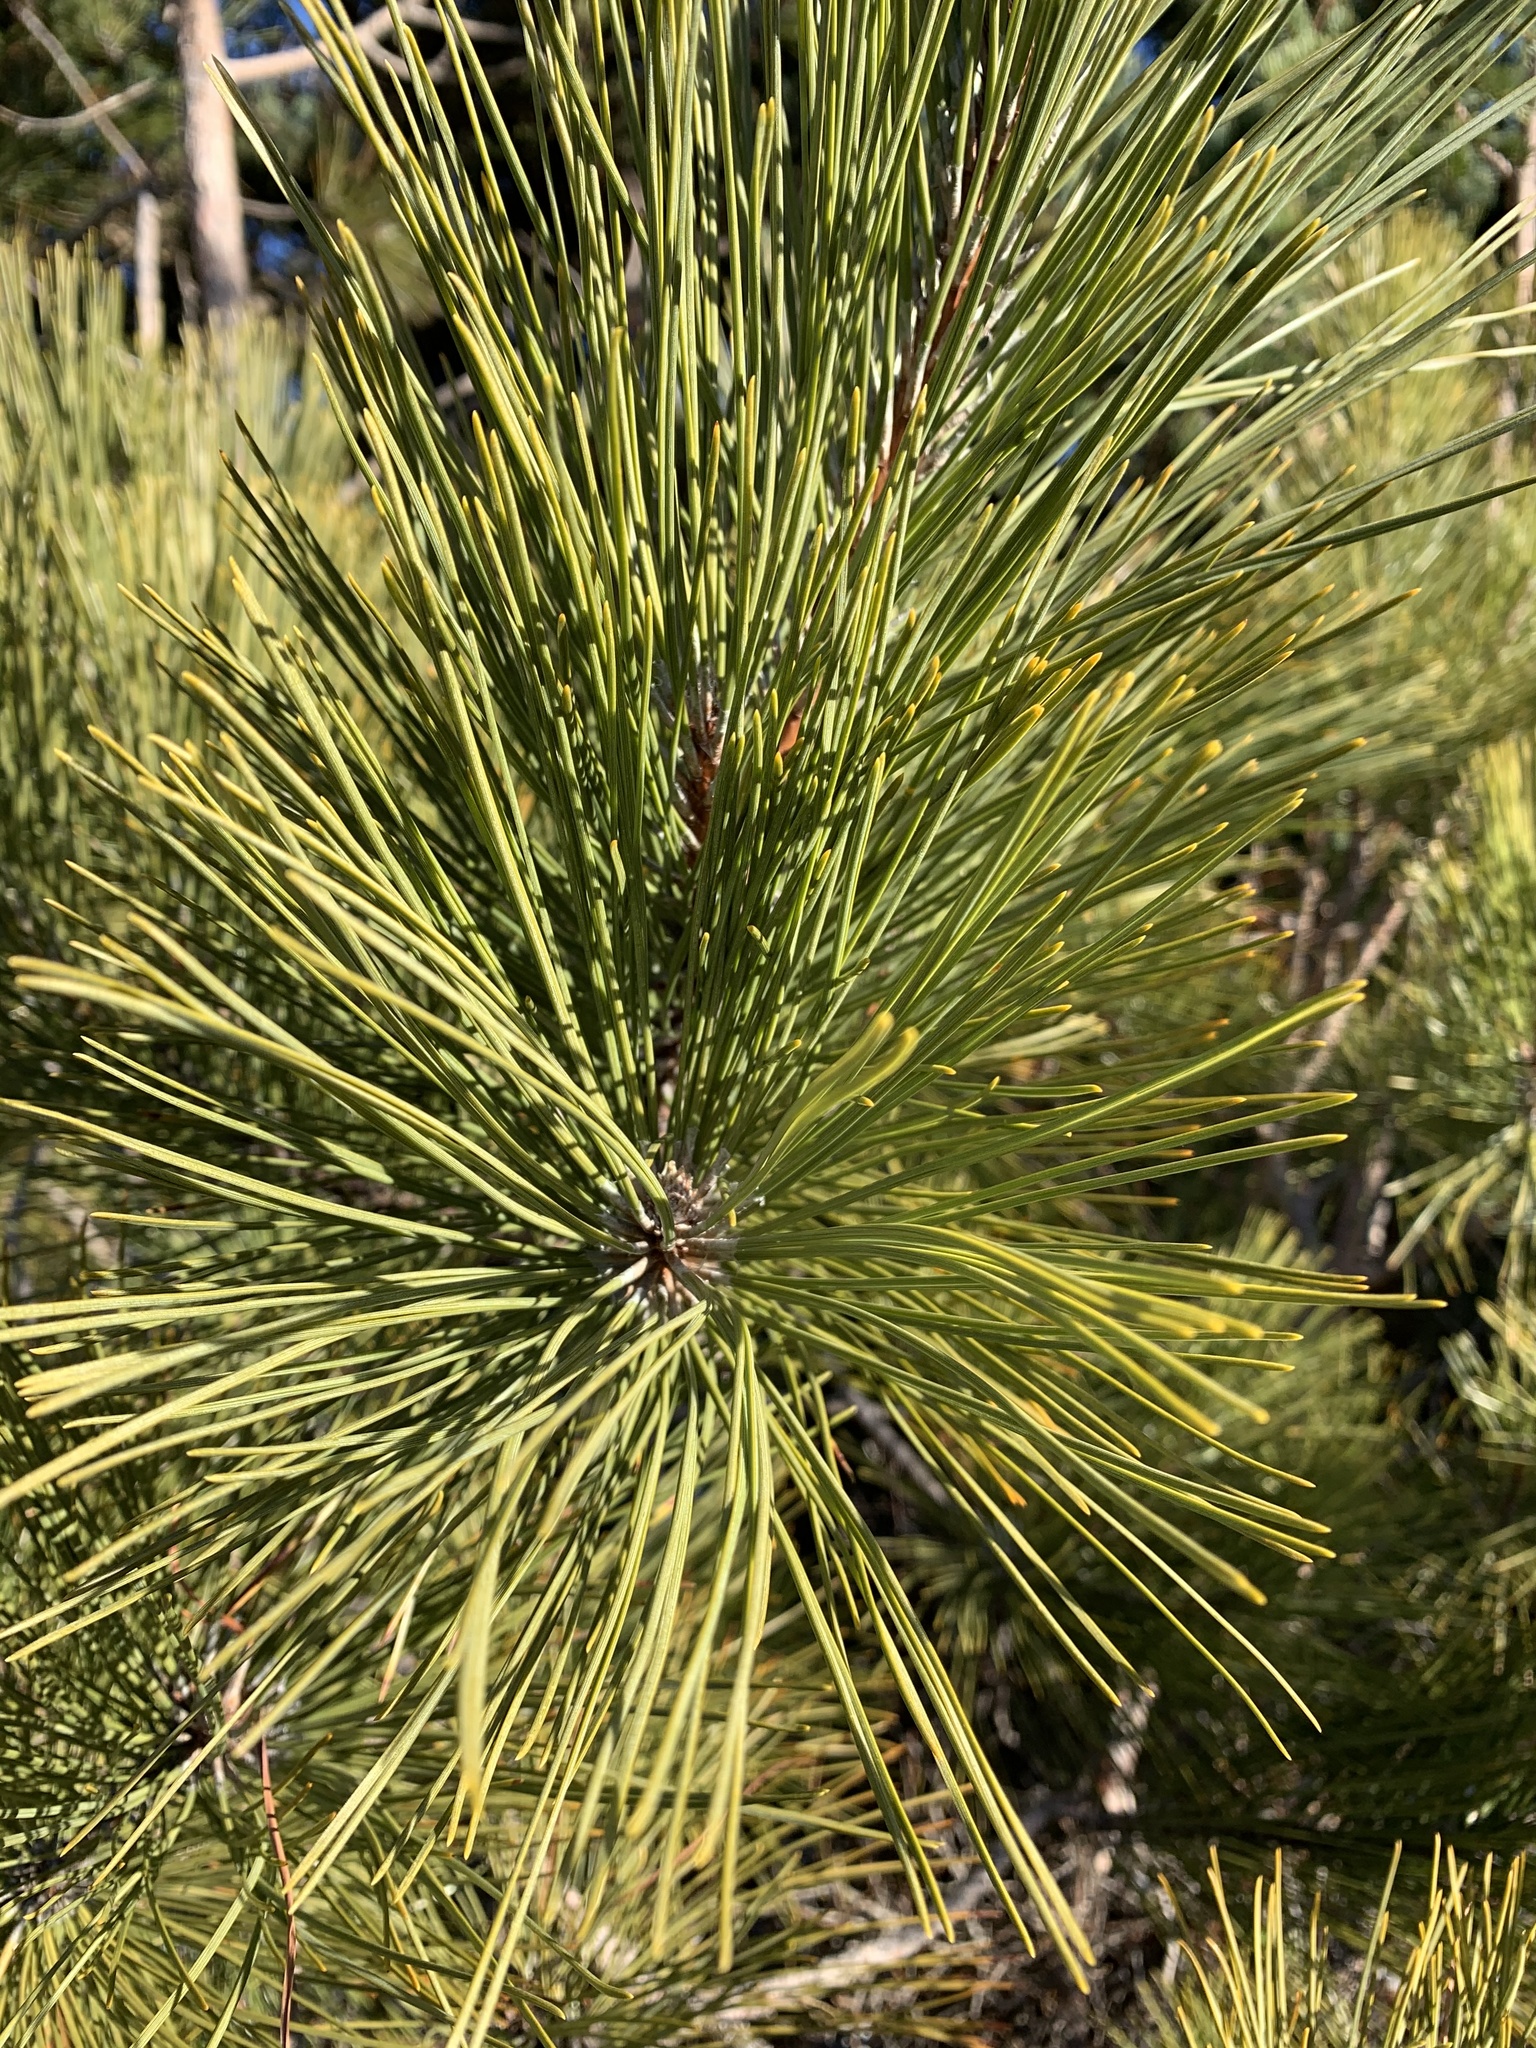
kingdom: Plantae
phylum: Tracheophyta
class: Pinopsida
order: Pinales
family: Pinaceae
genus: Pinus
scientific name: Pinus resinosa
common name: Norway pine
